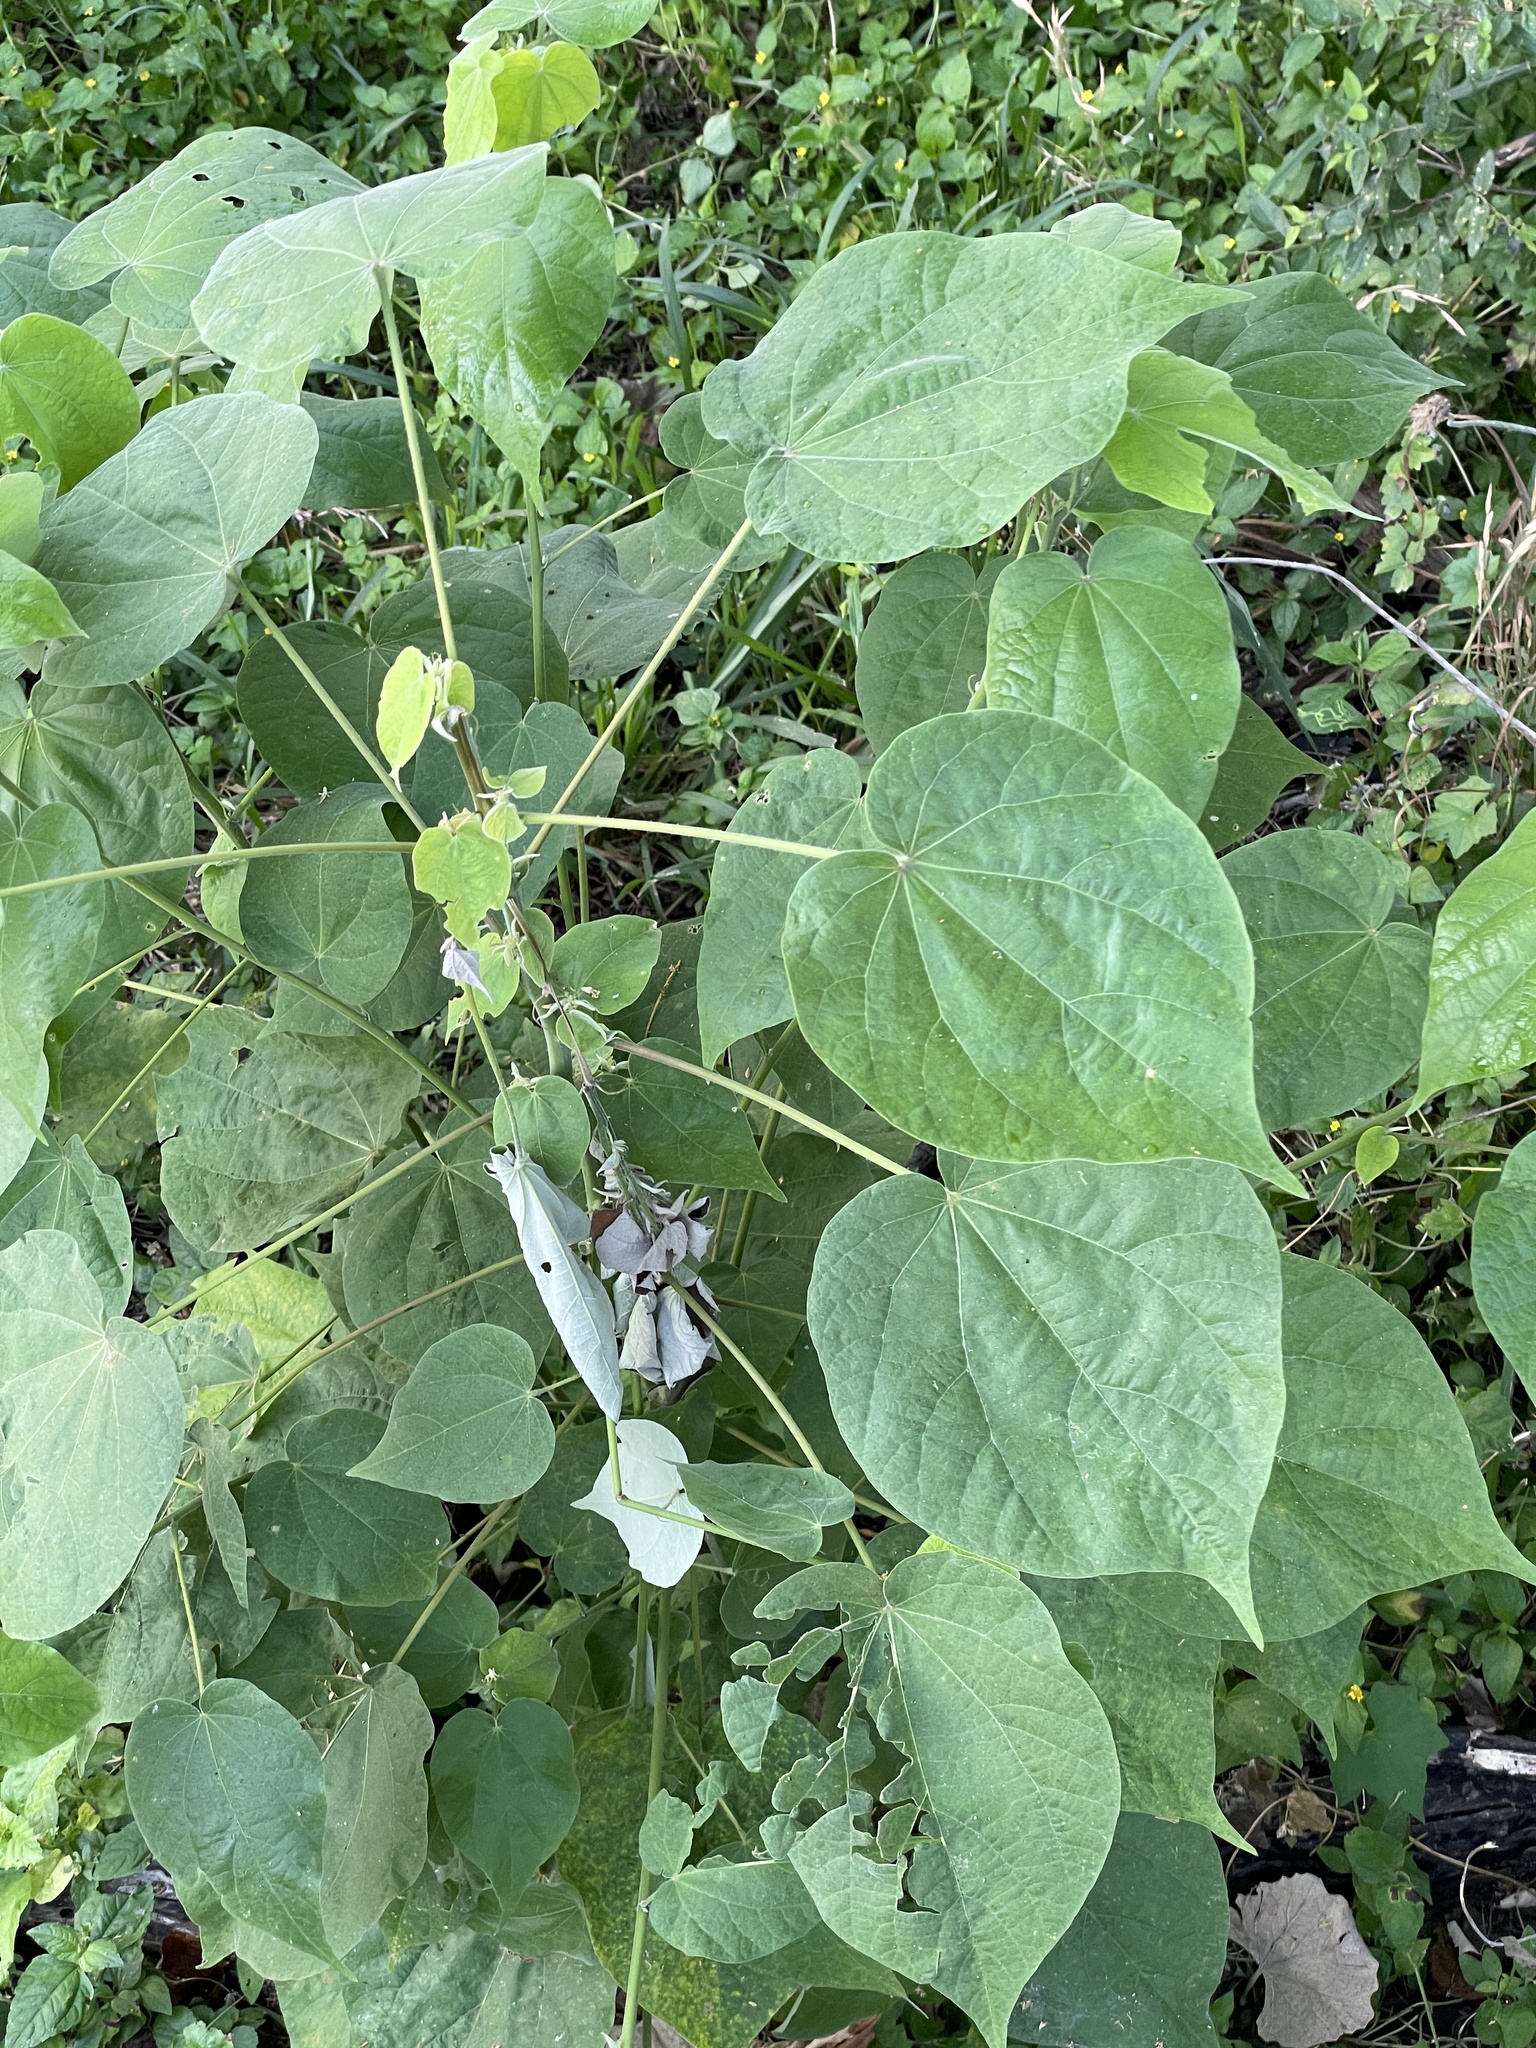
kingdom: Plantae
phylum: Tracheophyta
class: Magnoliopsida
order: Malvales
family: Malvaceae
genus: Wissadula
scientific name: Wissadula amplissima
